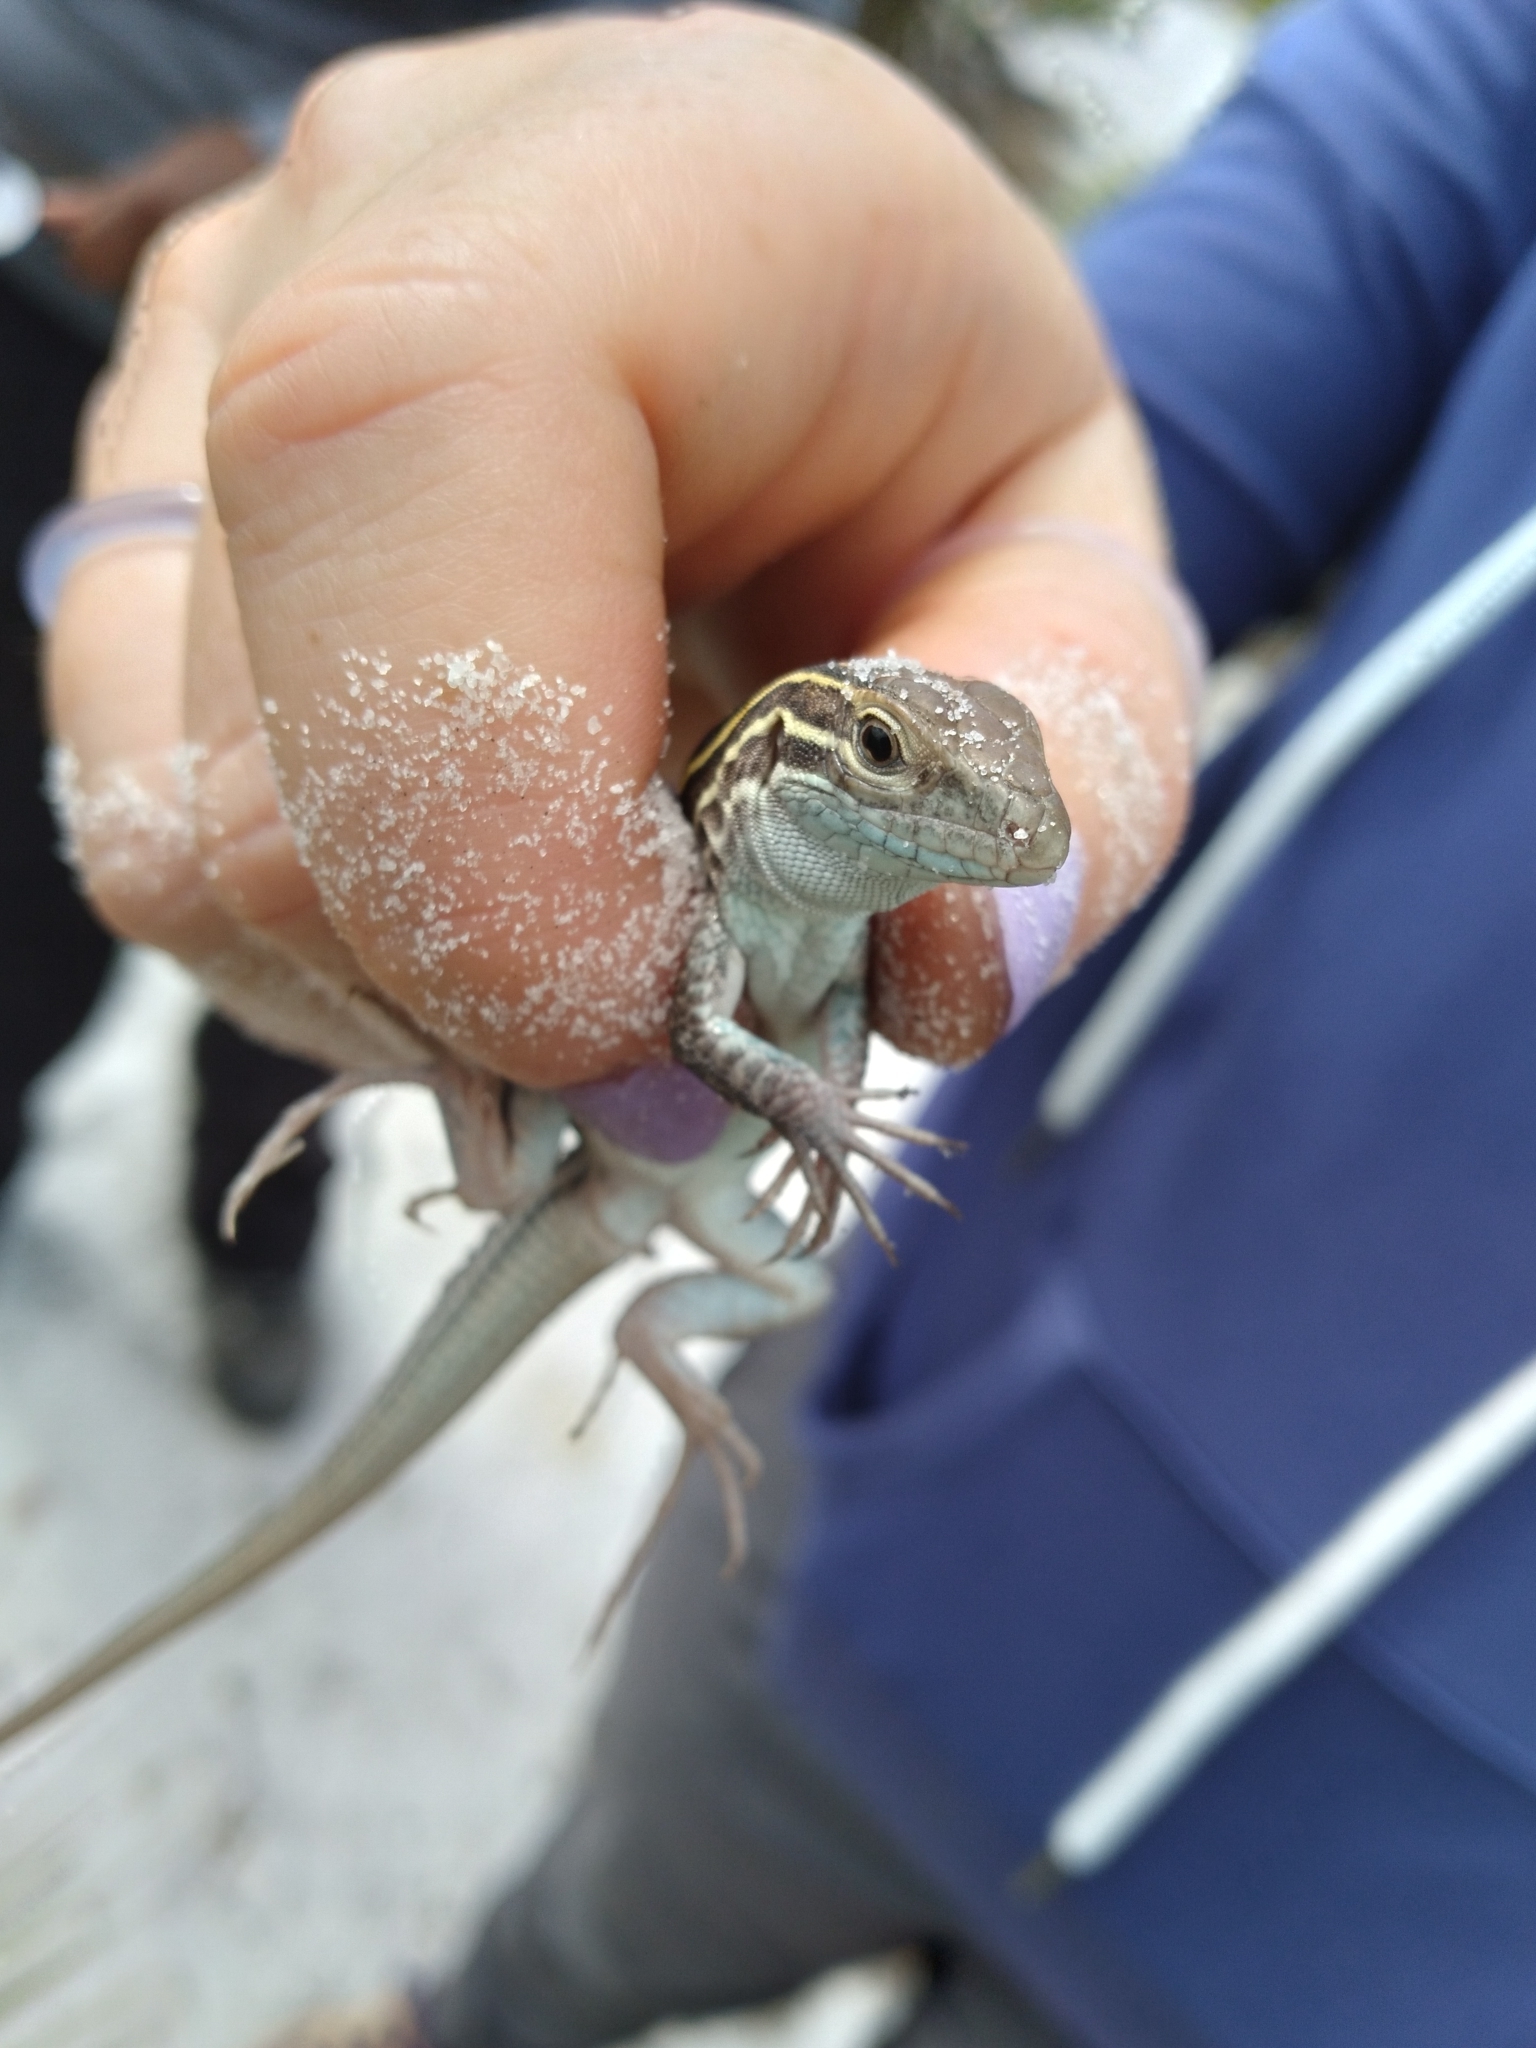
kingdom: Animalia
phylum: Chordata
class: Squamata
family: Teiidae
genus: Aspidoscelis
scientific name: Aspidoscelis sexlineatus
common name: Six-lined racerunner
